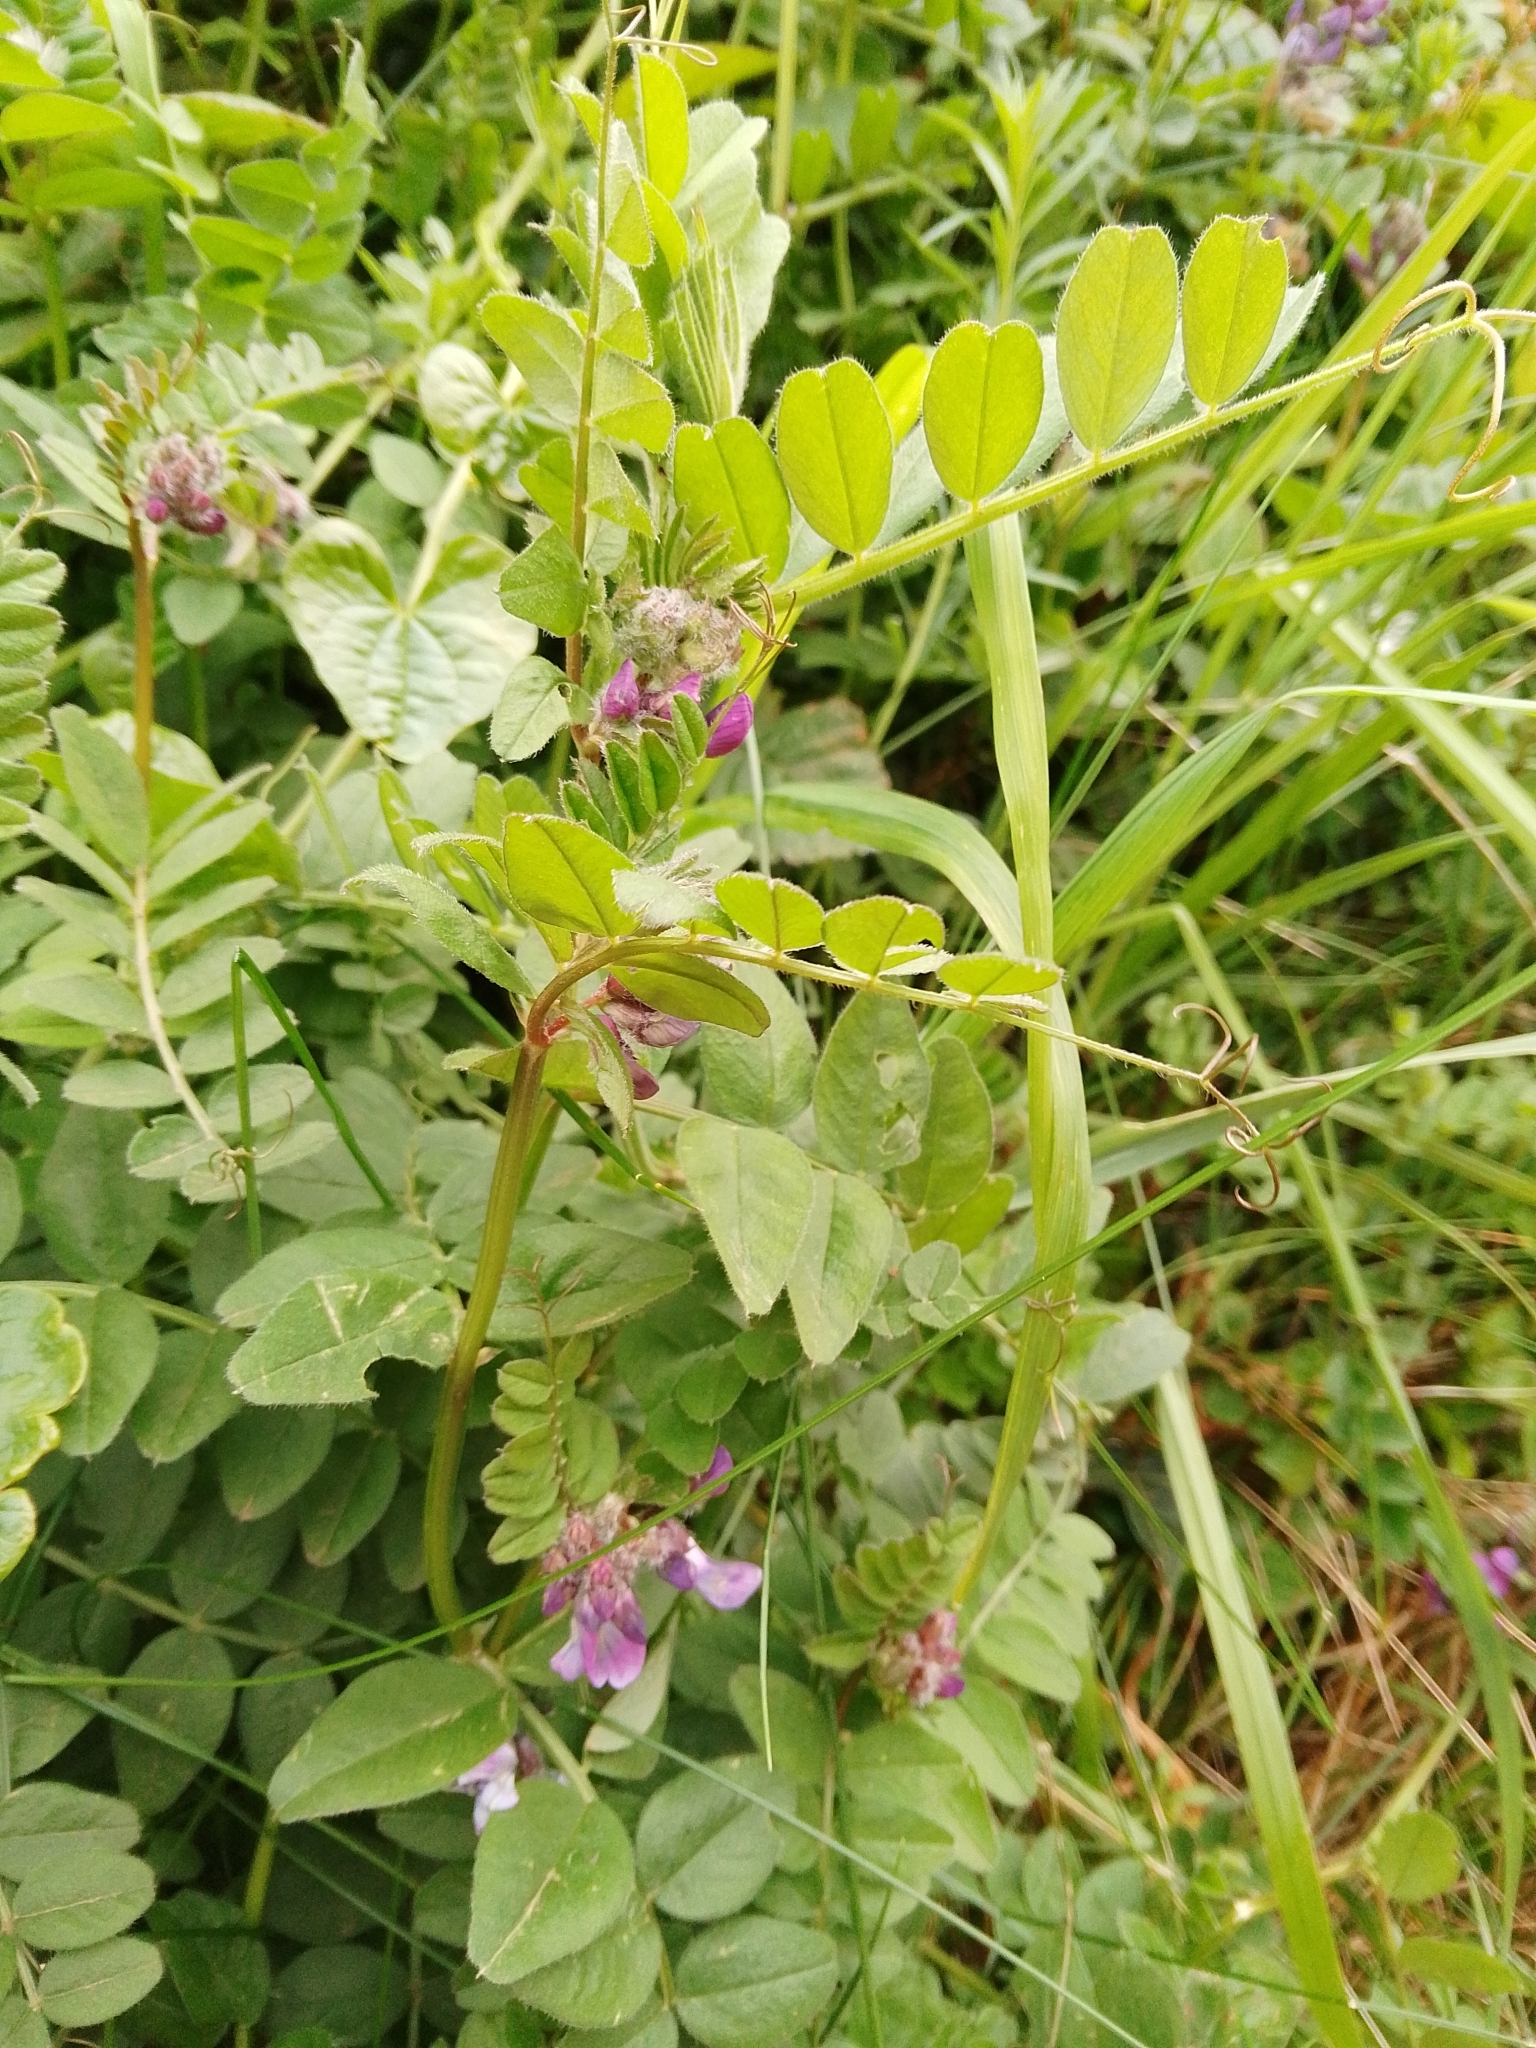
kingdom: Plantae
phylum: Tracheophyta
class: Magnoliopsida
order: Fabales
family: Fabaceae
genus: Vicia
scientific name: Vicia sepium
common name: Bush vetch
